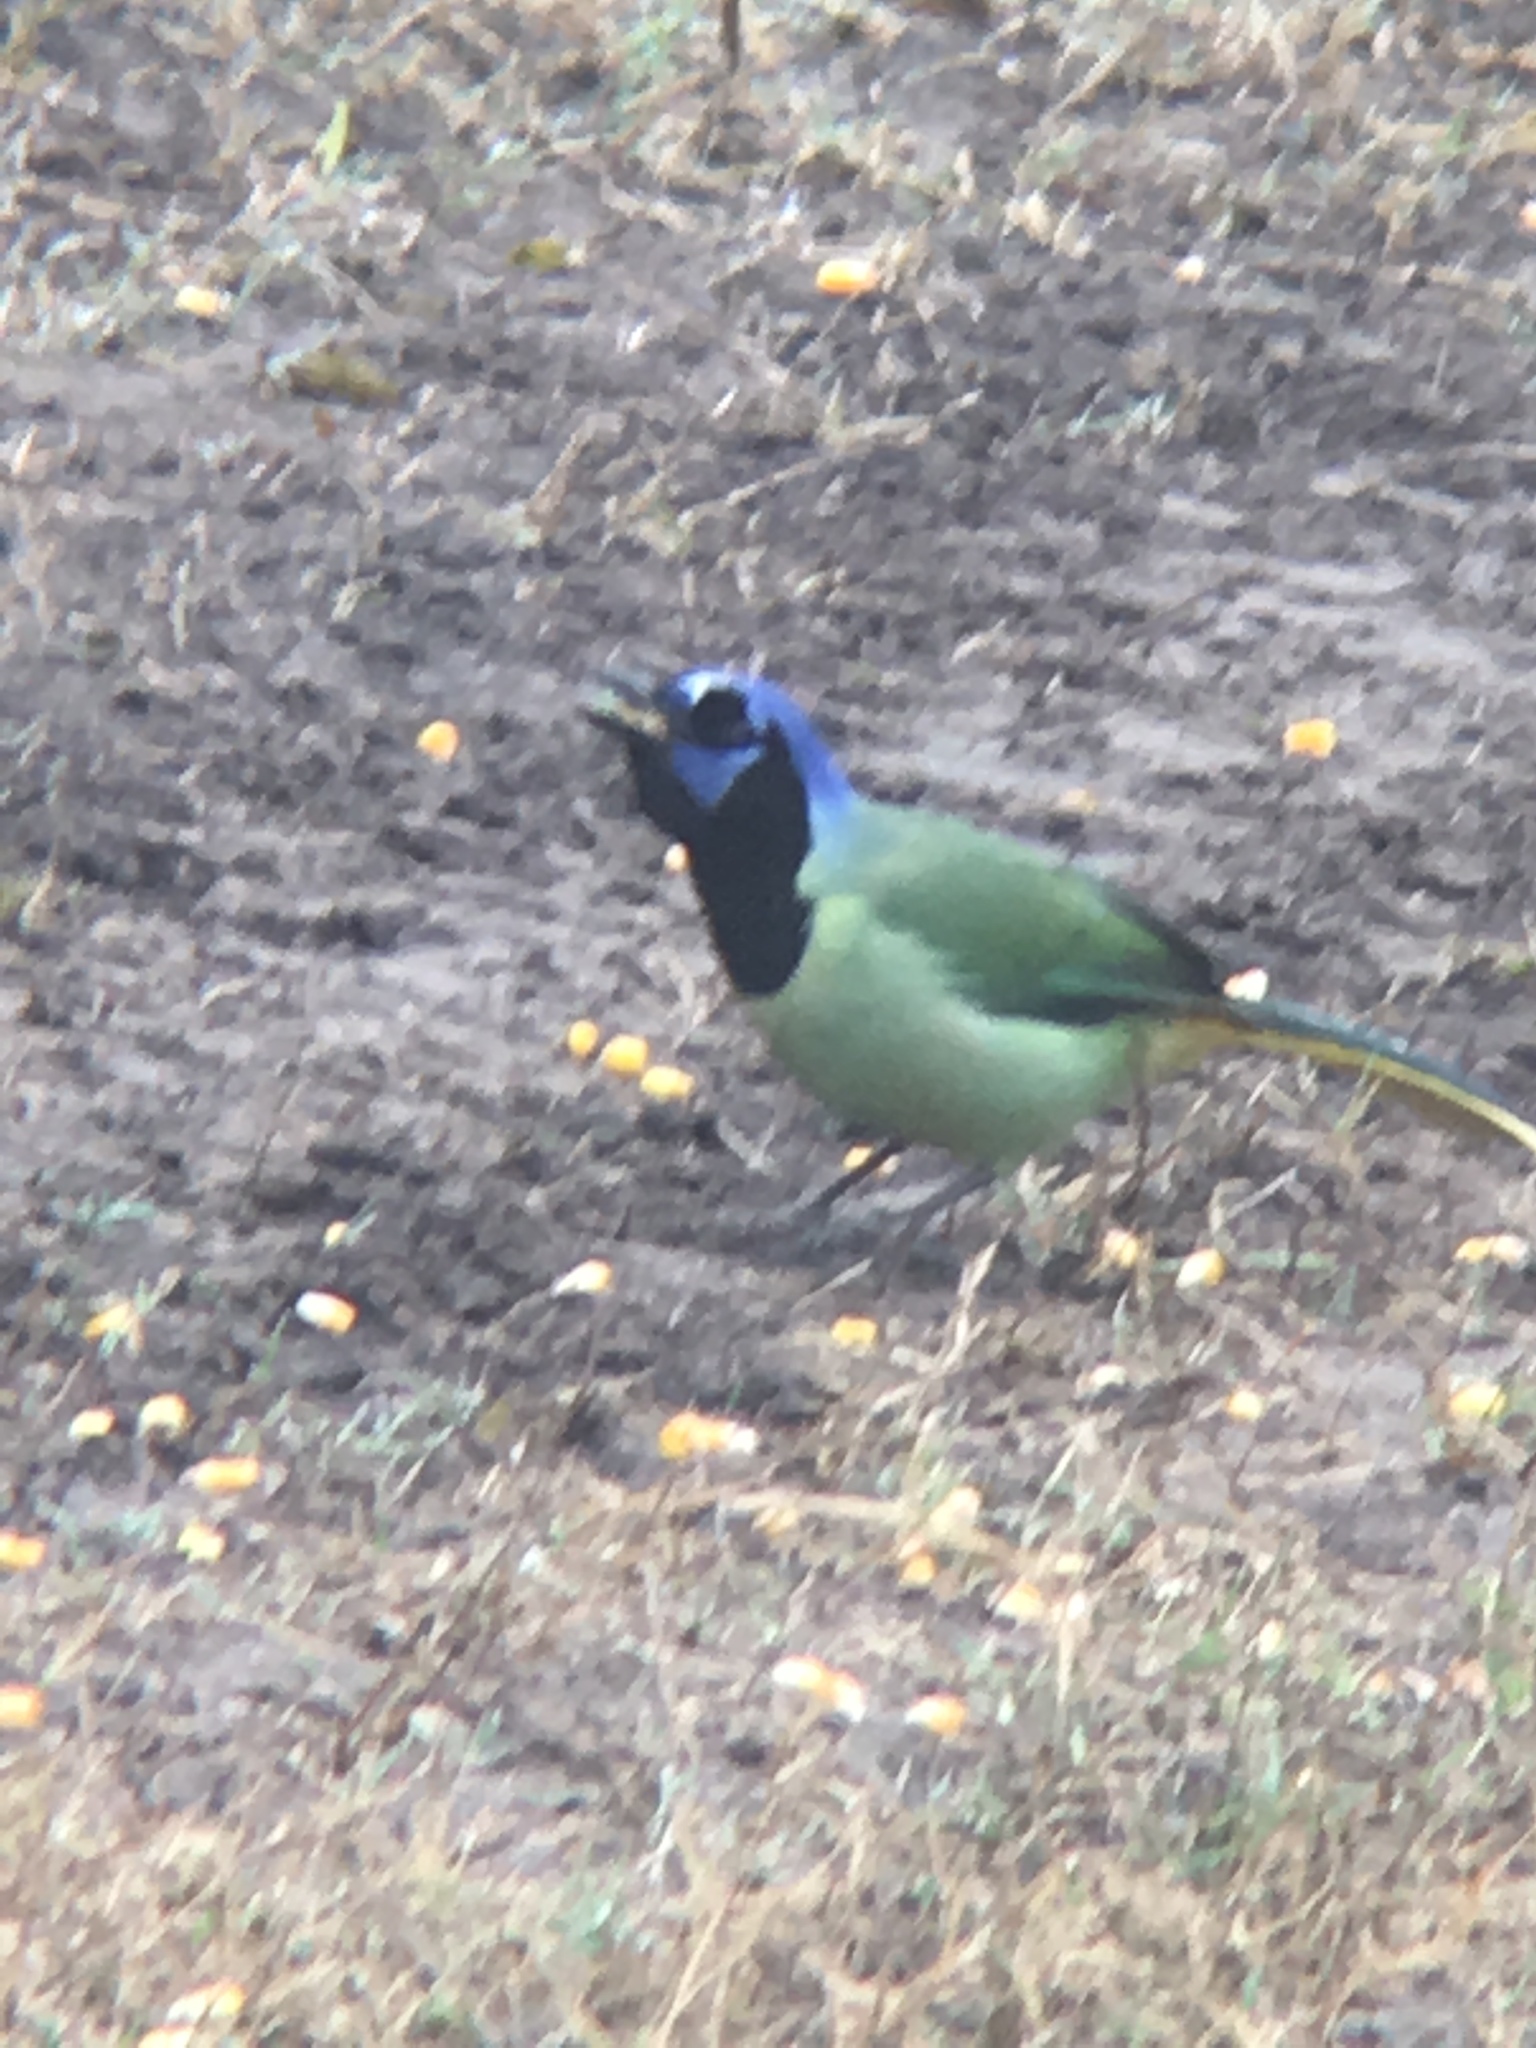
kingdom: Animalia
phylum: Chordata
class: Aves
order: Passeriformes
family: Corvidae
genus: Cyanocorax
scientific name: Cyanocorax yncas
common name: Green jay
